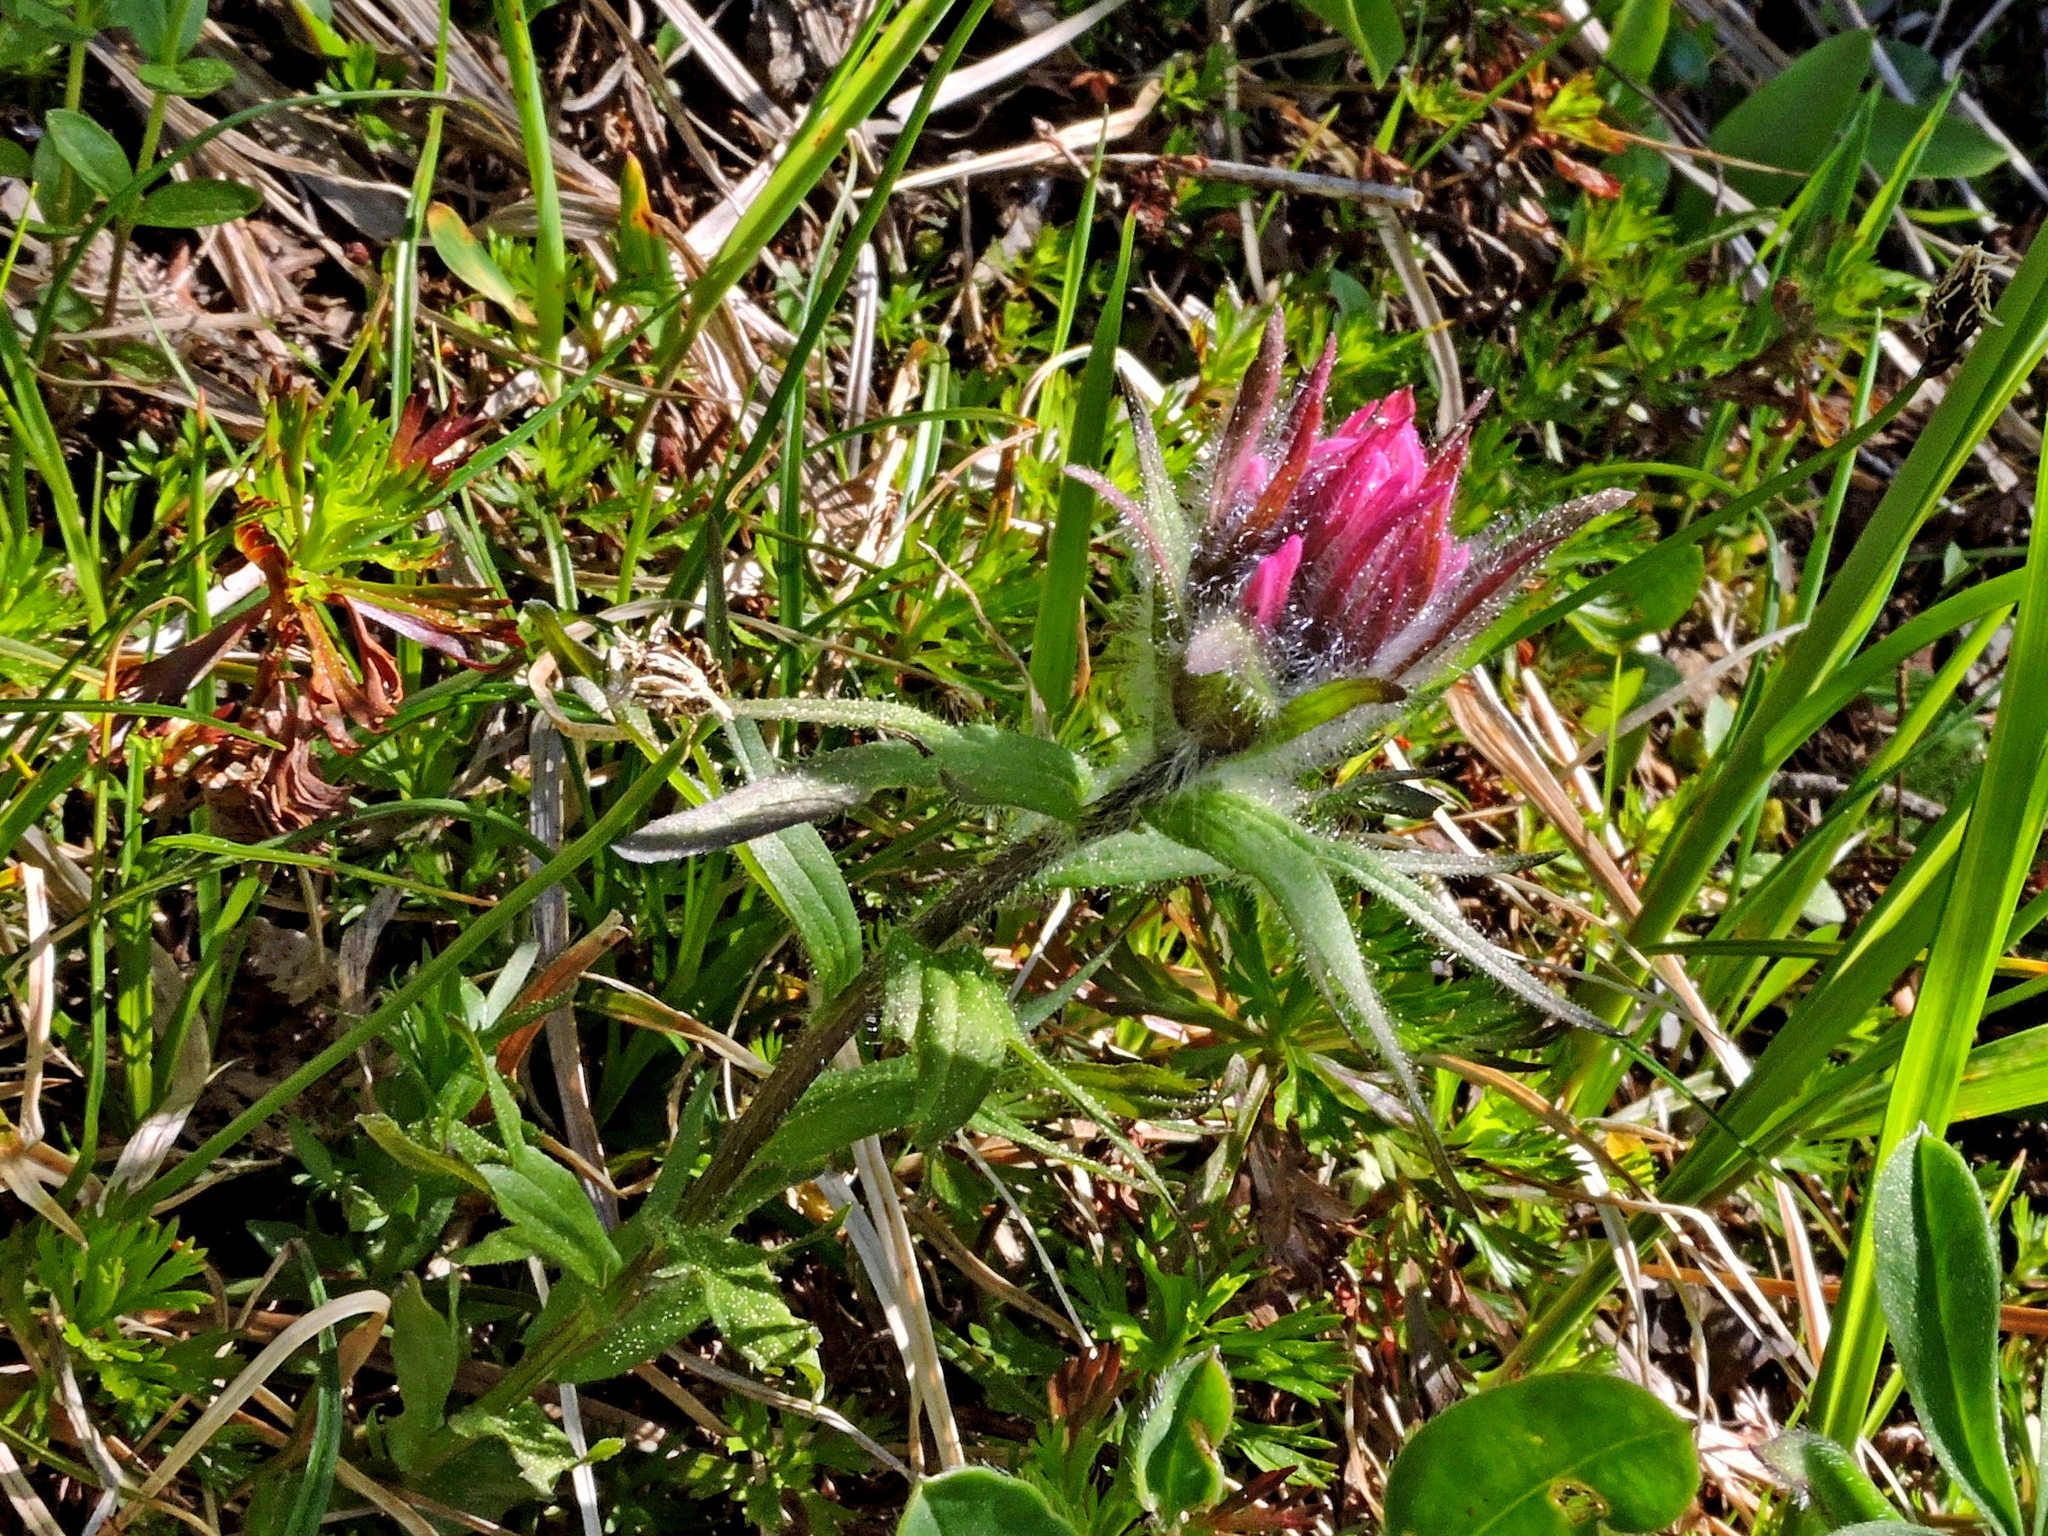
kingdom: Plantae
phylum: Tracheophyta
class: Magnoliopsida
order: Lamiales
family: Orobanchaceae
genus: Castilleja
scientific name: Castilleja parviflora
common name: Mountain paintbrush
